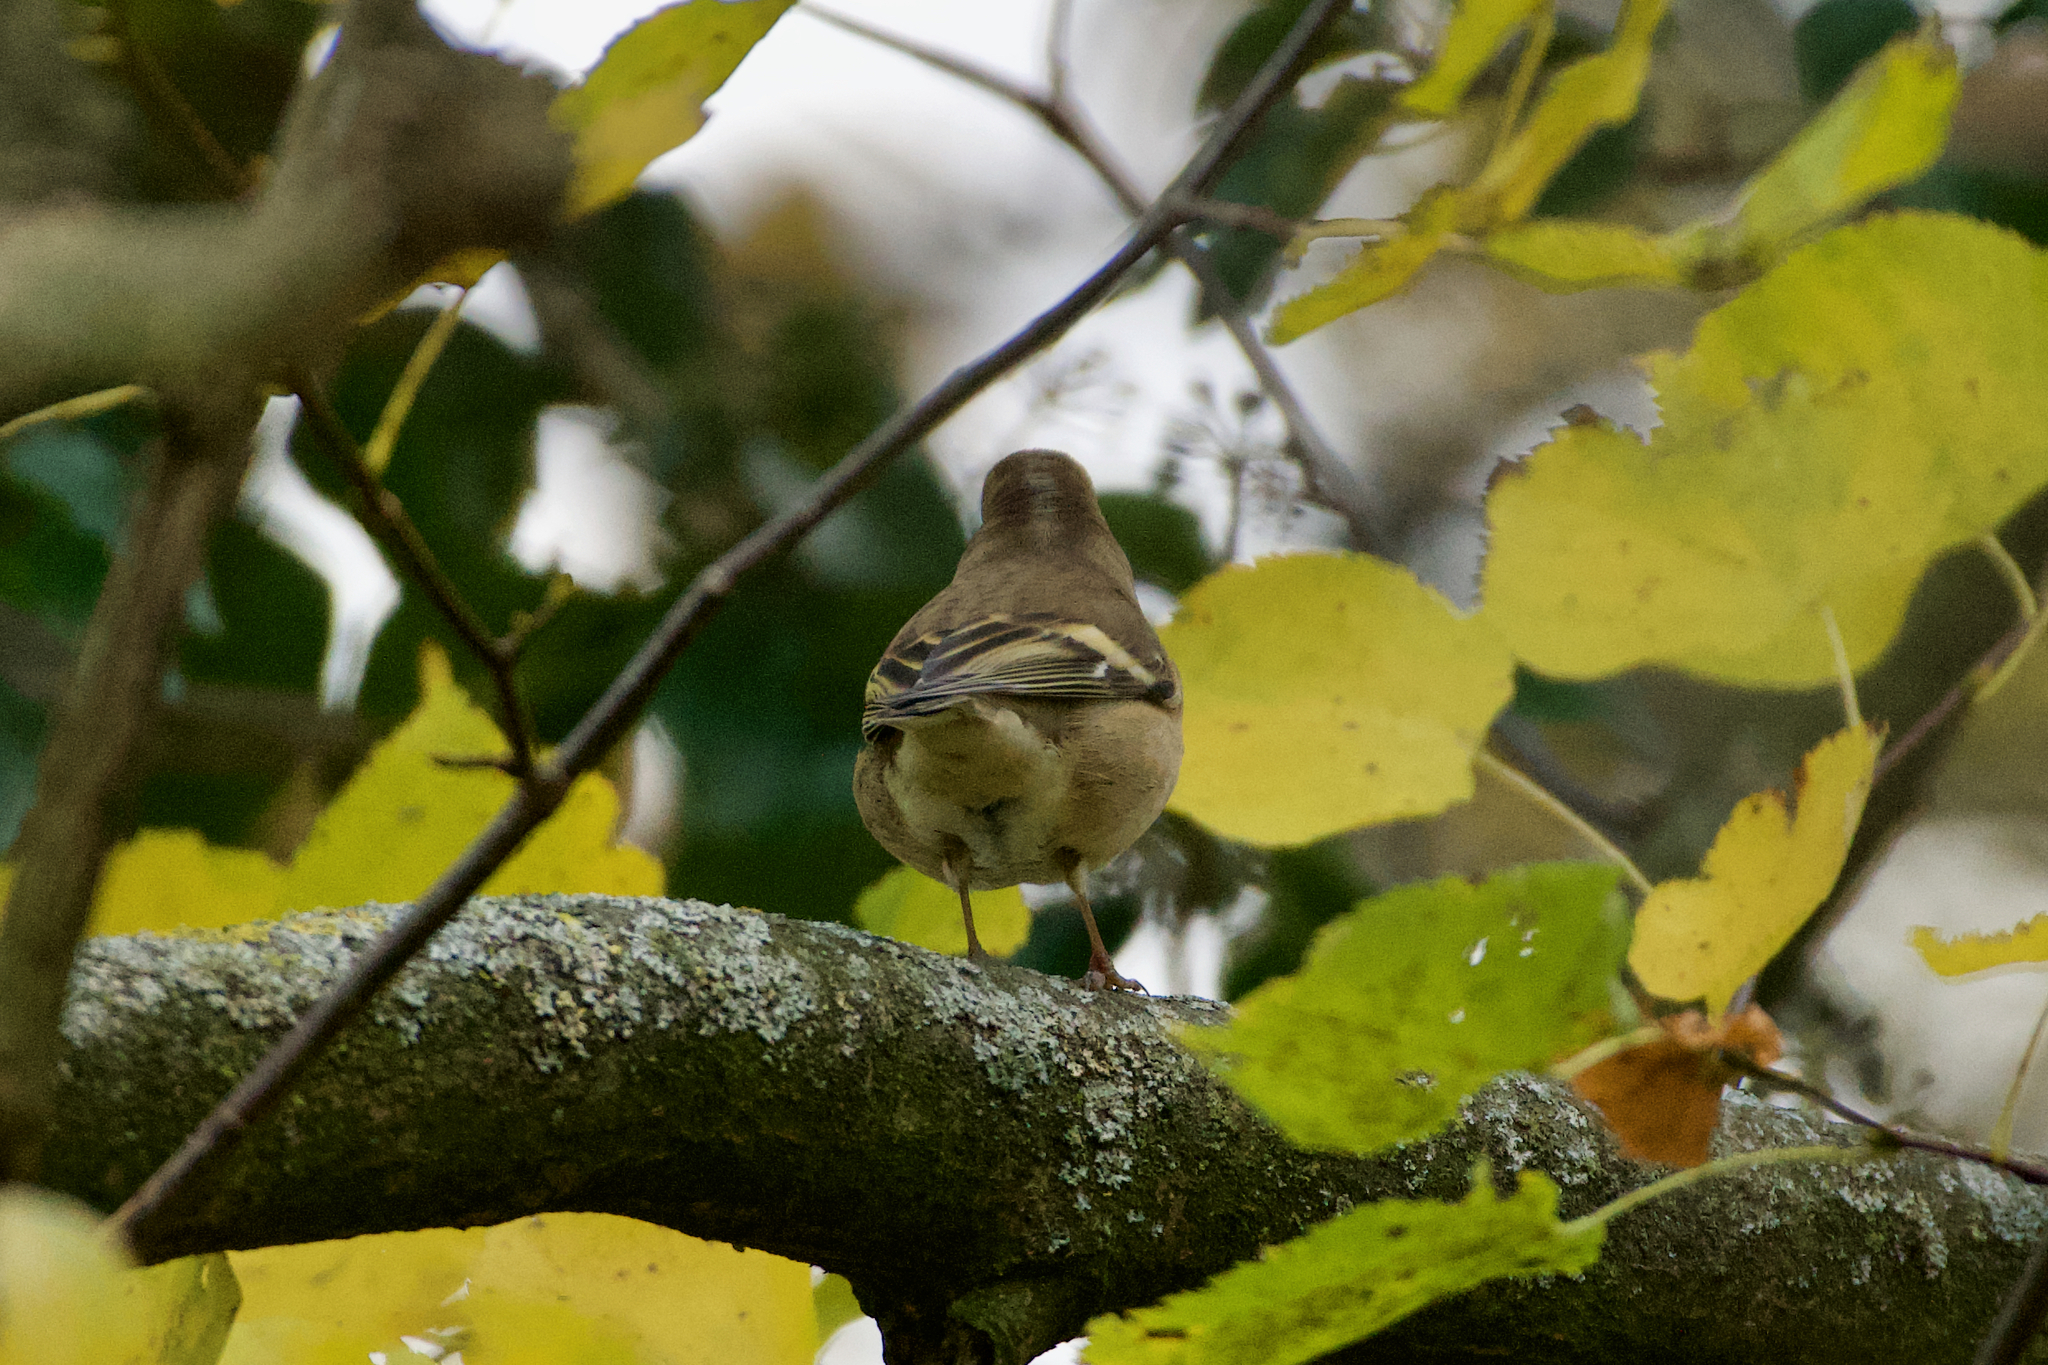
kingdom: Animalia
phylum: Chordata
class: Aves
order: Passeriformes
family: Fringillidae
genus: Fringilla
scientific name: Fringilla coelebs
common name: Common chaffinch
